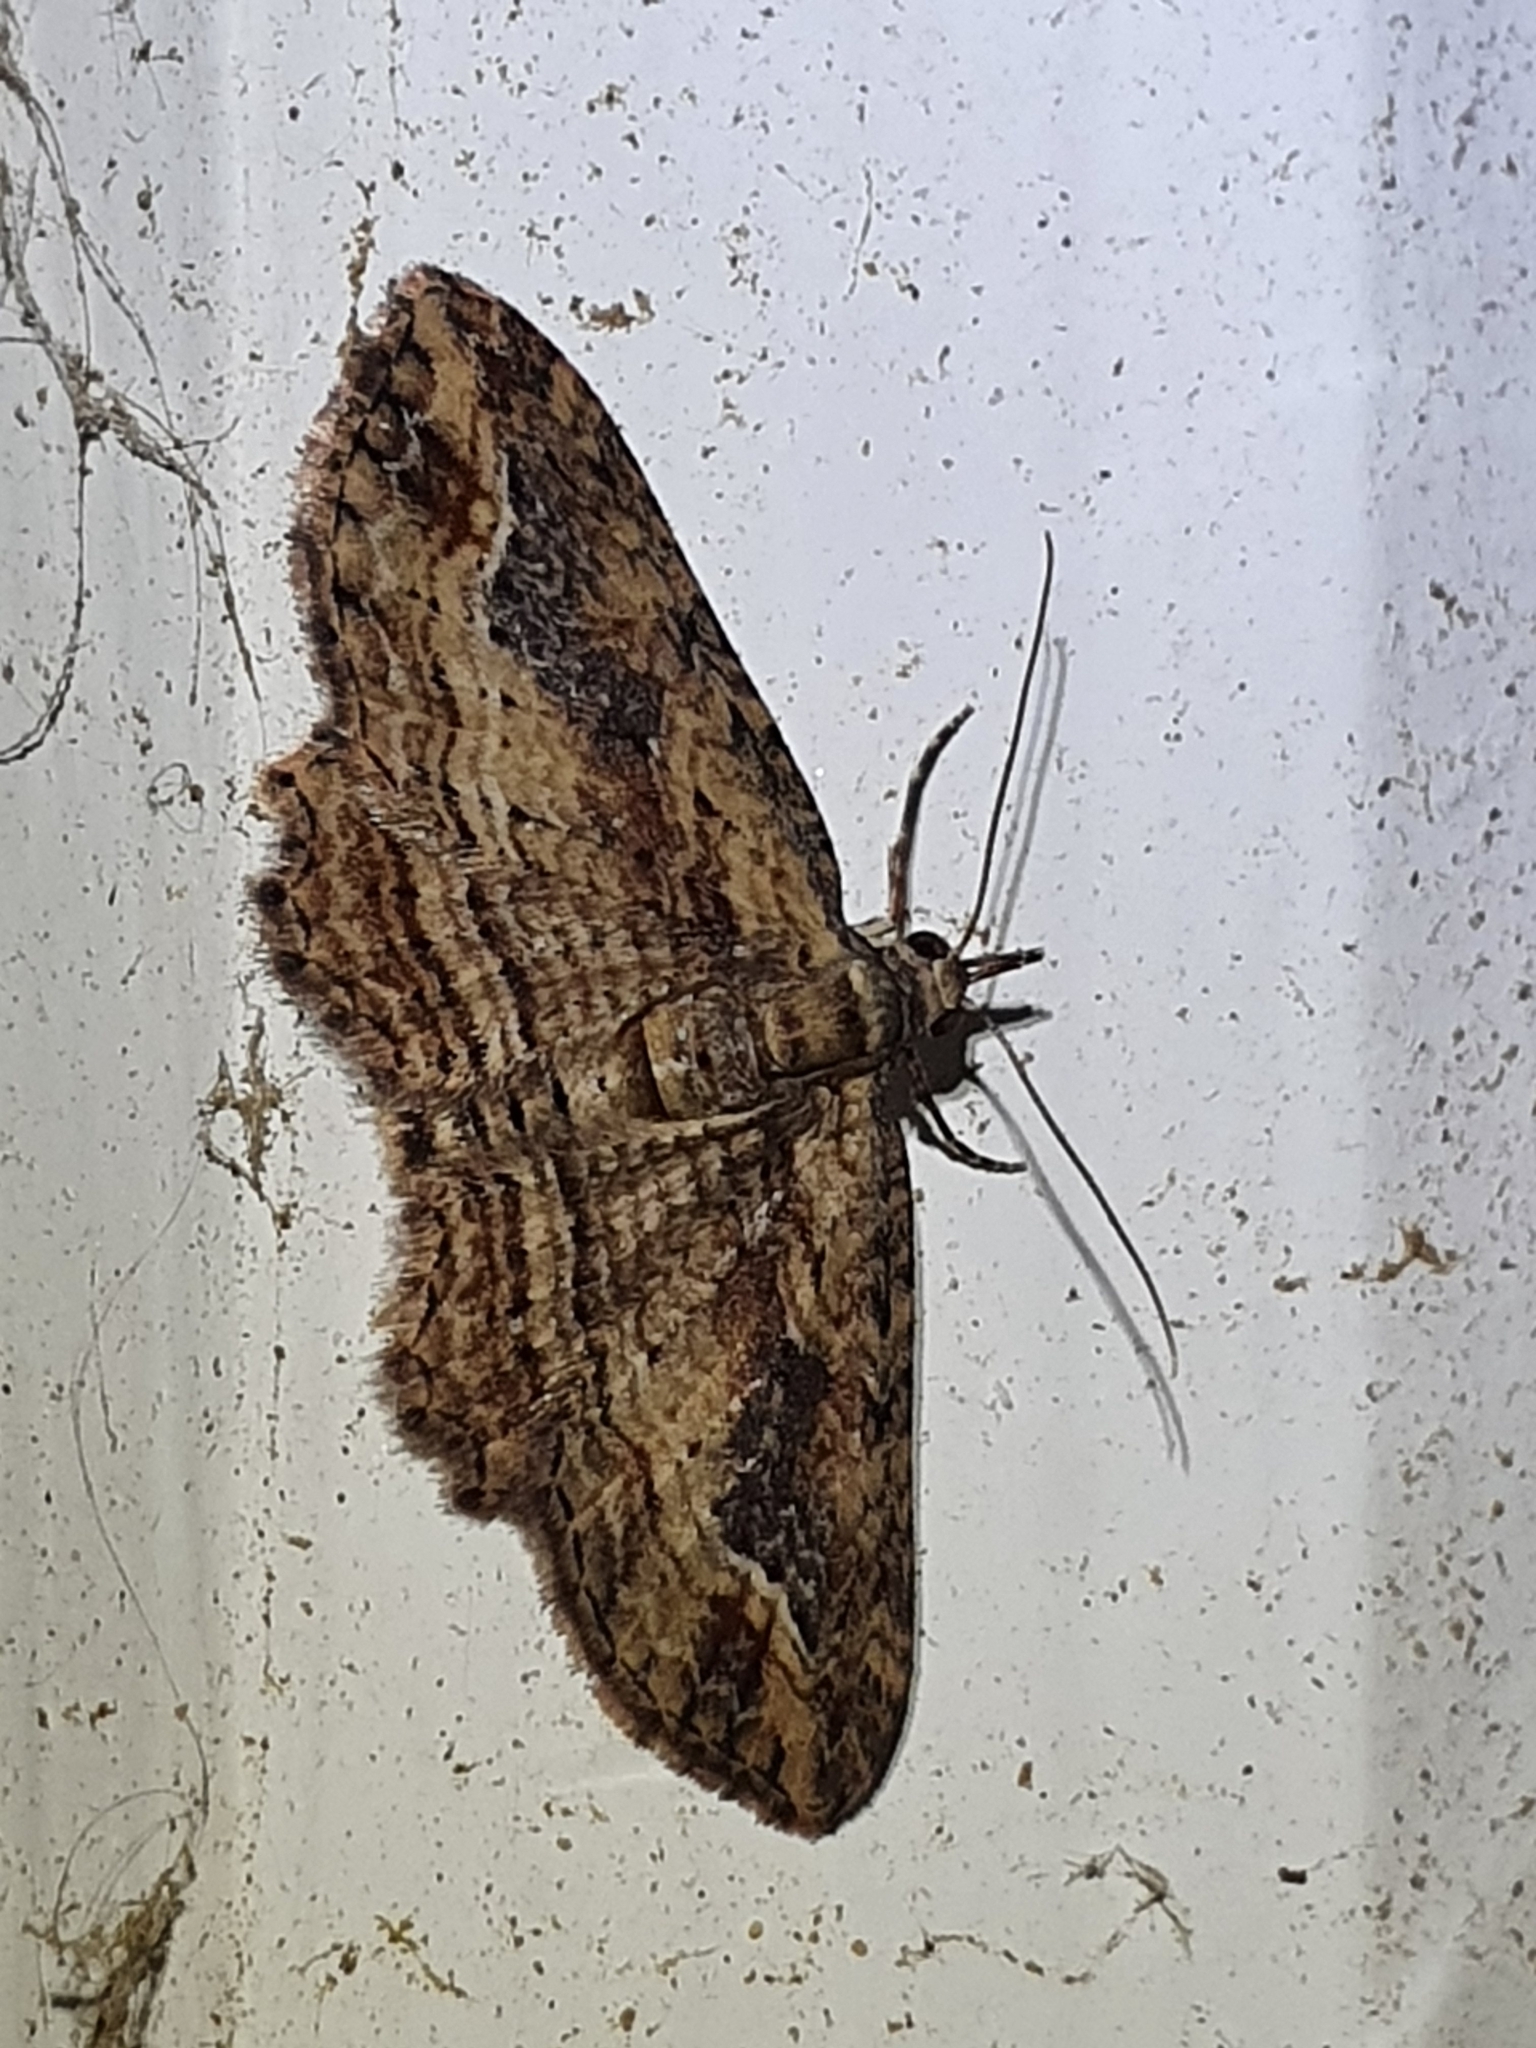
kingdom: Animalia
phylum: Arthropoda
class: Insecta
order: Lepidoptera
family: Geometridae
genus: Chloroclystis
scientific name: Chloroclystis filata
